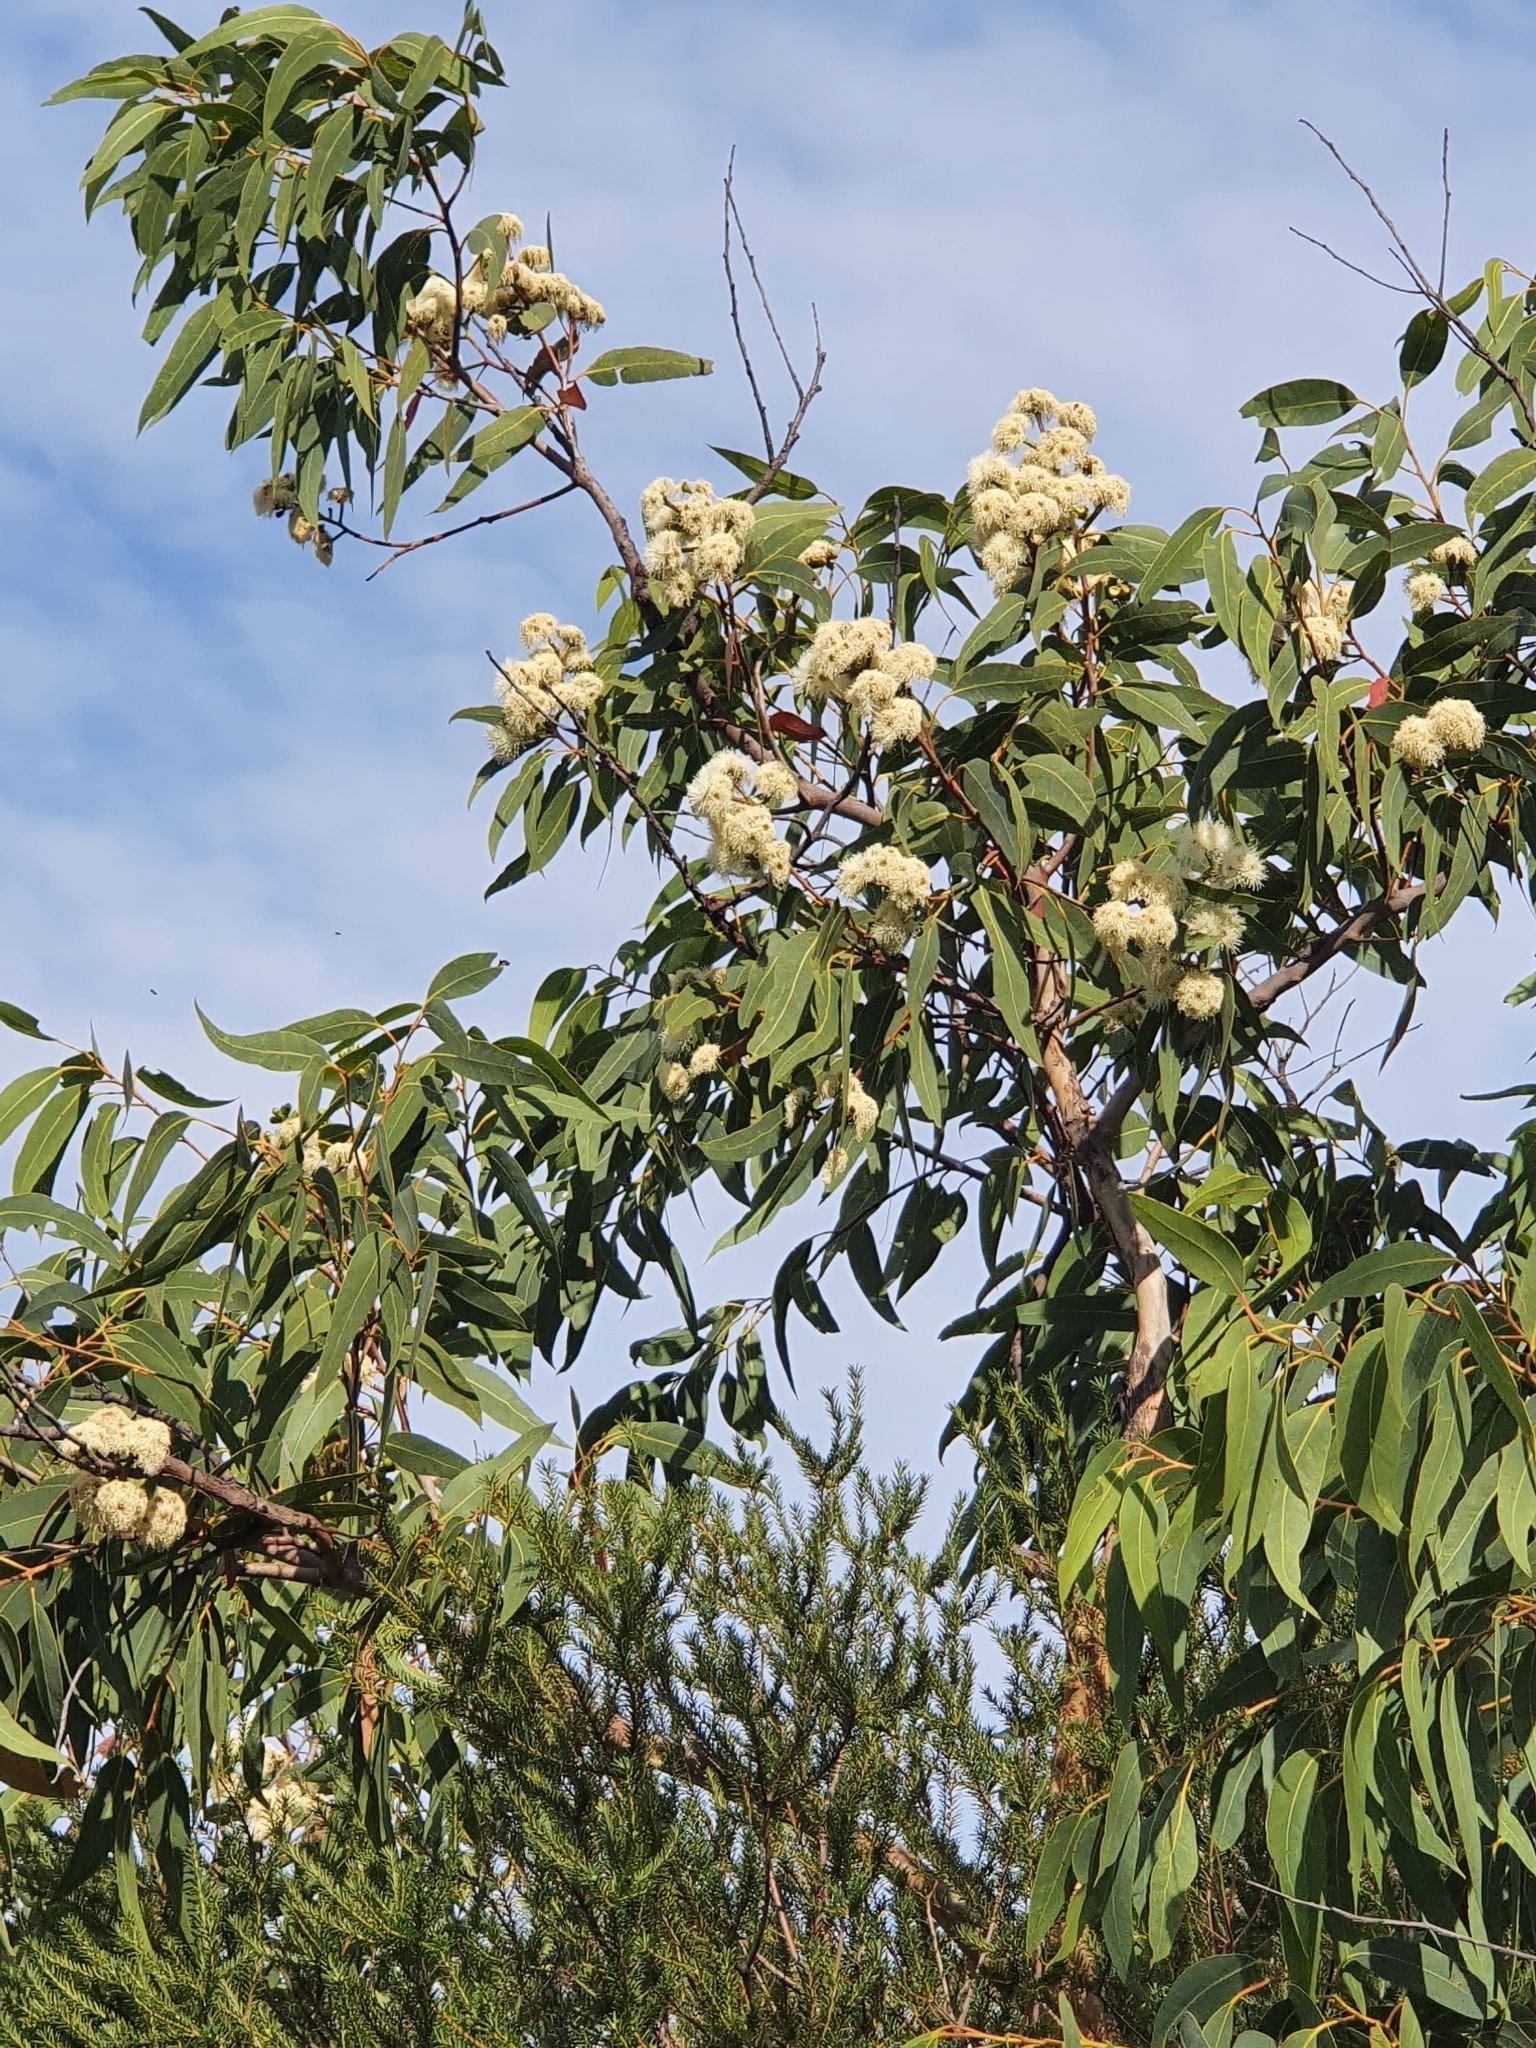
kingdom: Plantae
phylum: Tracheophyta
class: Magnoliopsida
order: Myrtales
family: Myrtaceae
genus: Corymbia
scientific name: Corymbia eximia
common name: Yellow bloodwood
